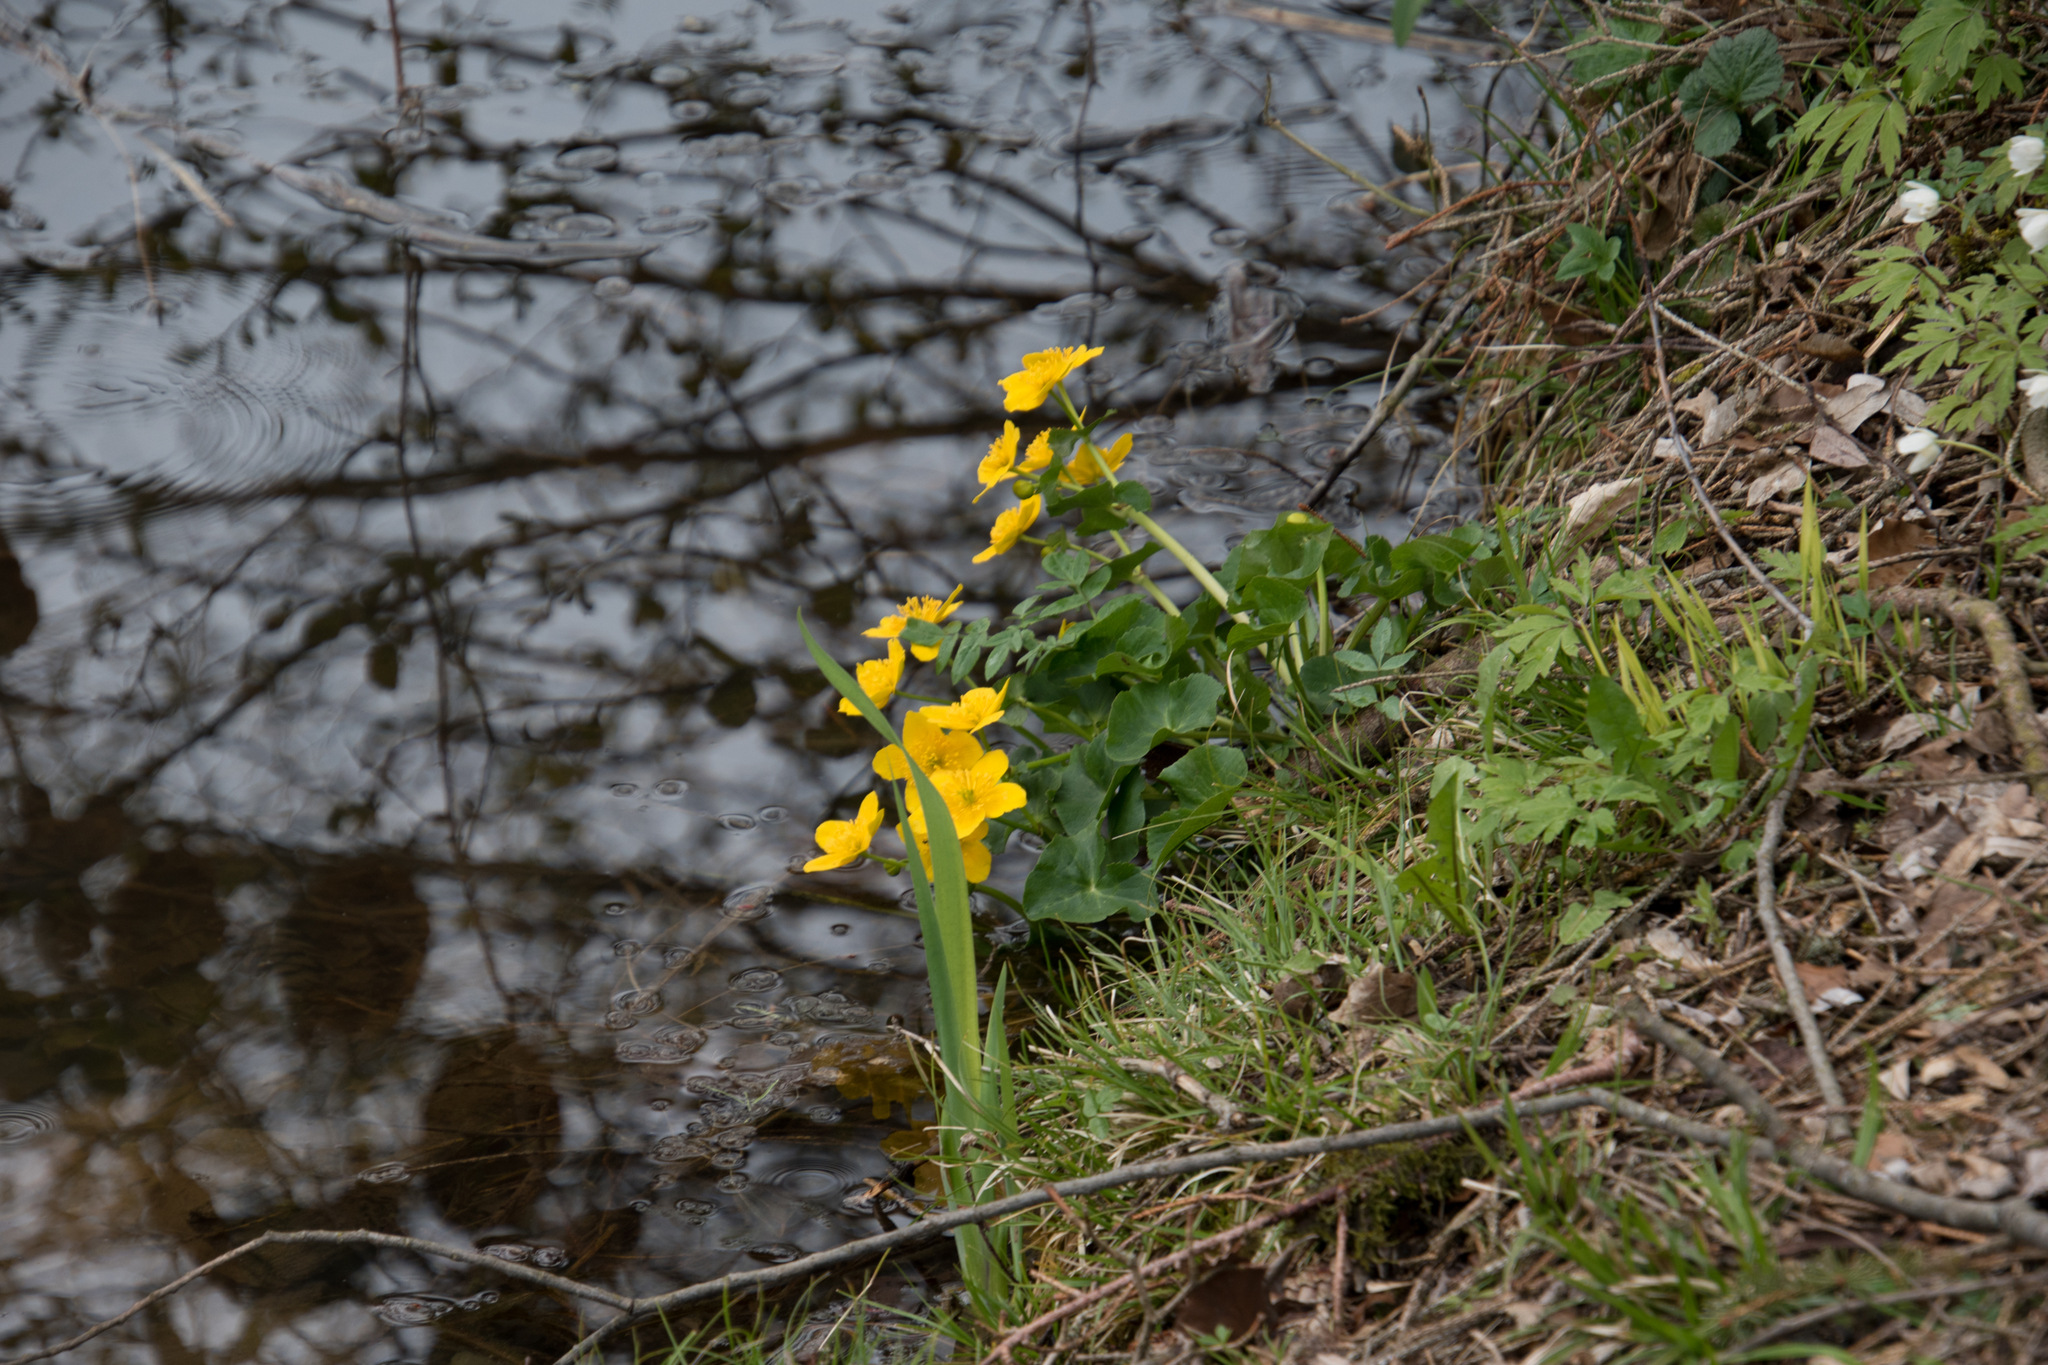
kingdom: Plantae
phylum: Tracheophyta
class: Magnoliopsida
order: Ranunculales
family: Ranunculaceae
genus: Caltha
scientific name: Caltha palustris
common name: Marsh marigold
